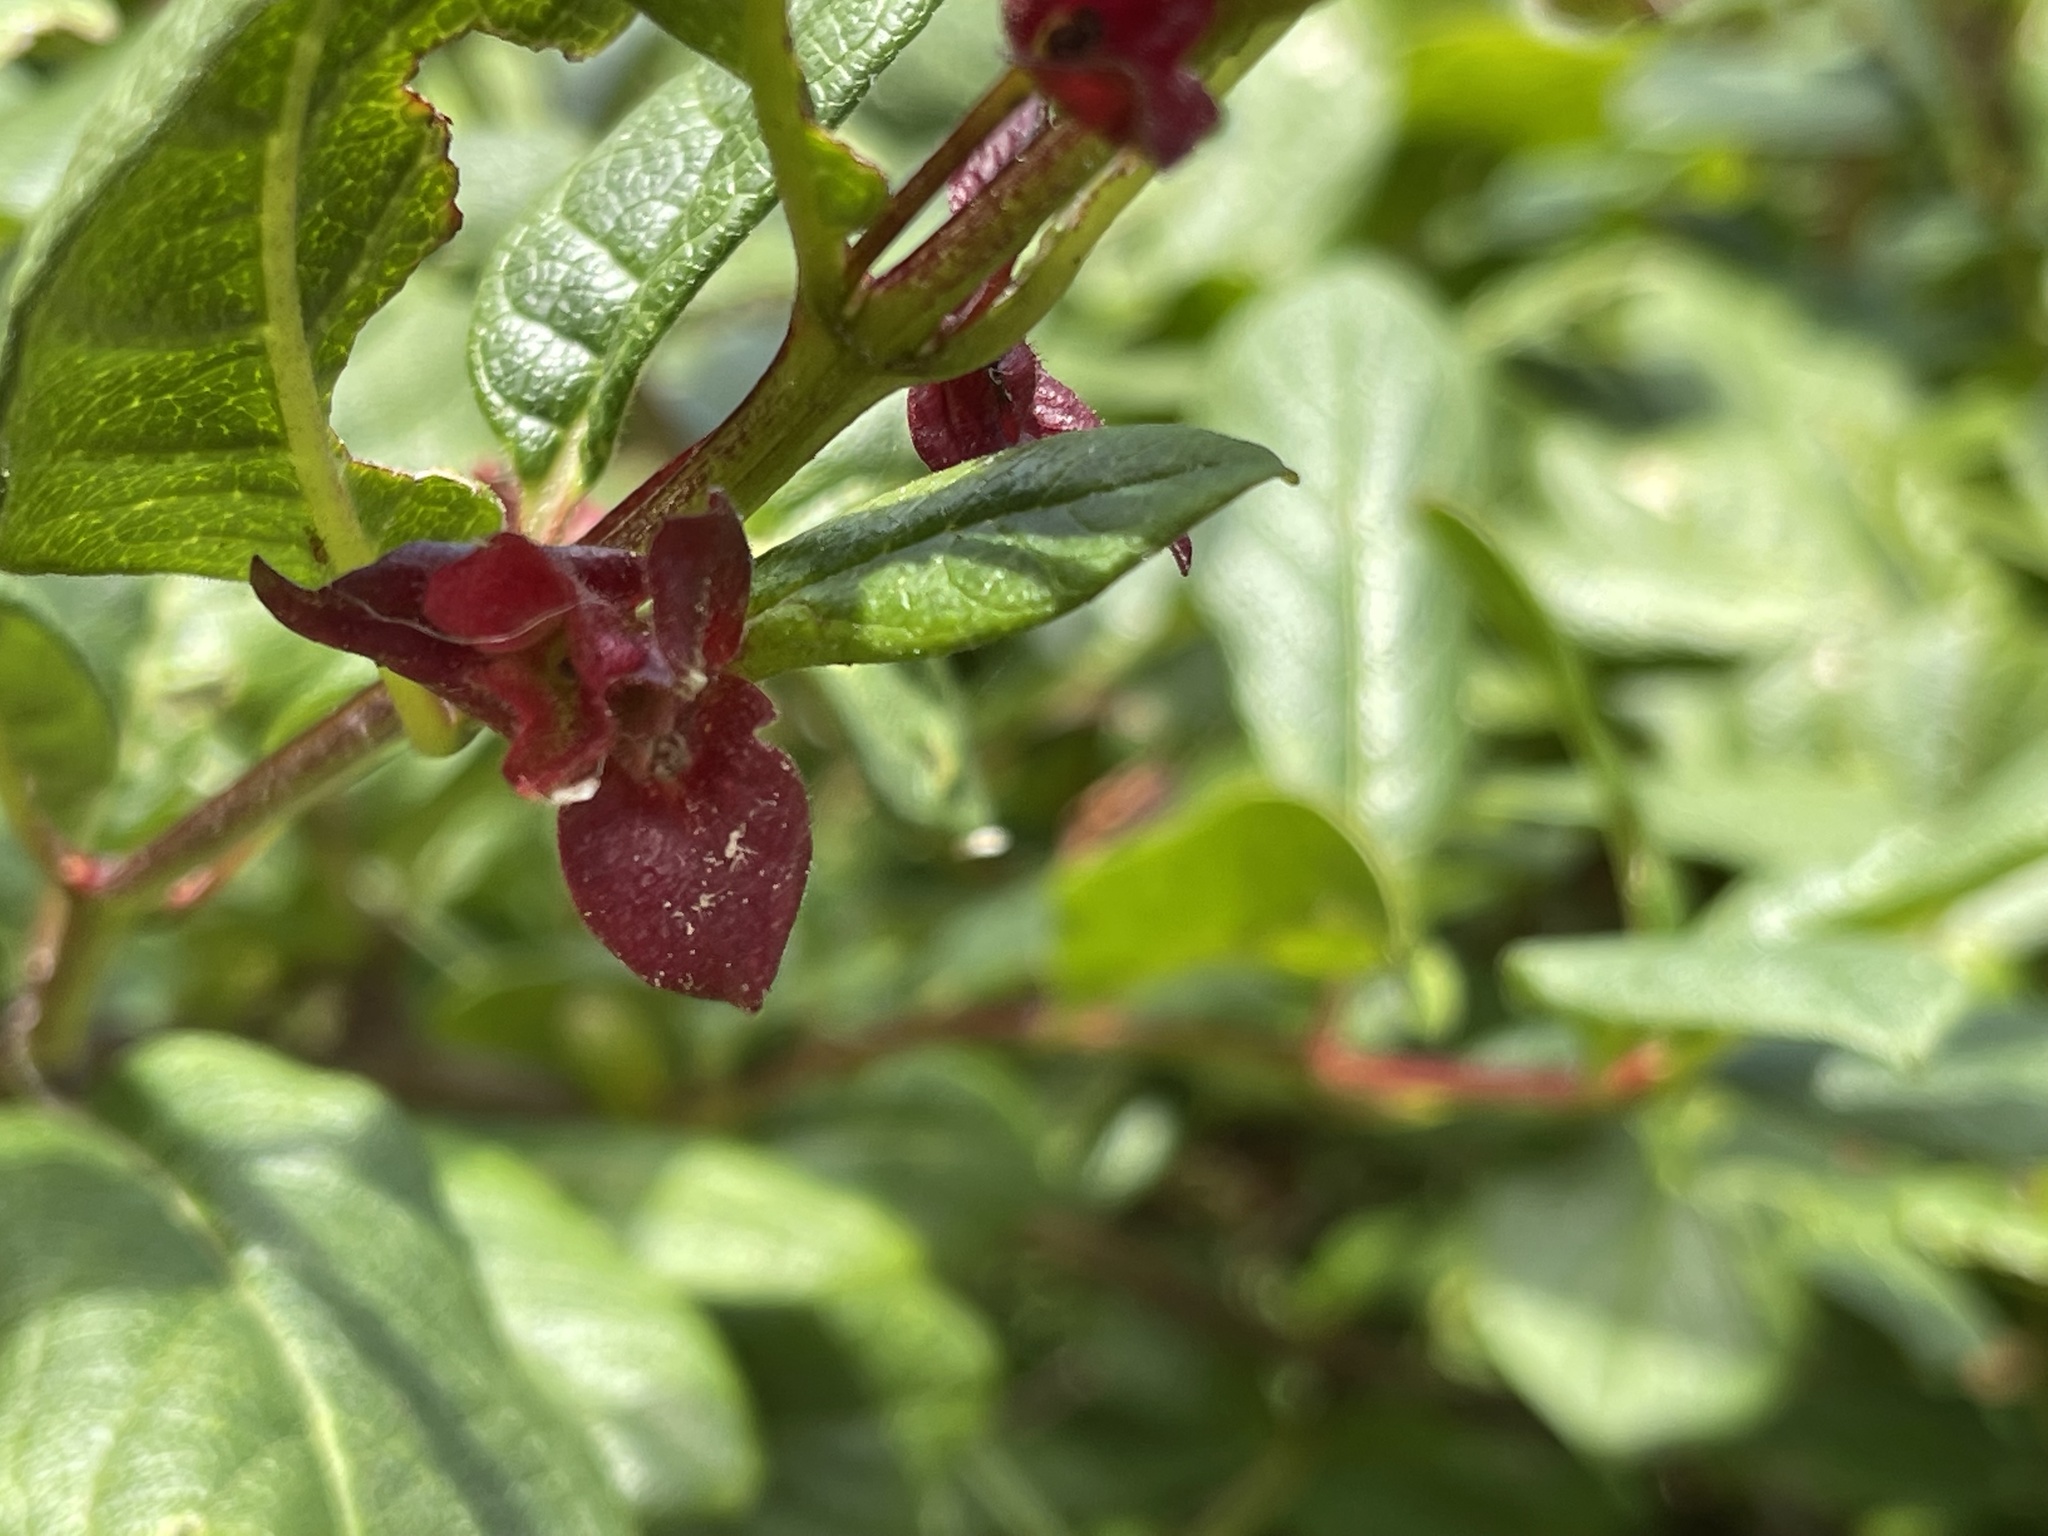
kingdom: Plantae
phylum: Tracheophyta
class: Magnoliopsida
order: Dipsacales
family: Caprifoliaceae
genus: Lonicera
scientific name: Lonicera involucrata
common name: Californian honeysuckle
